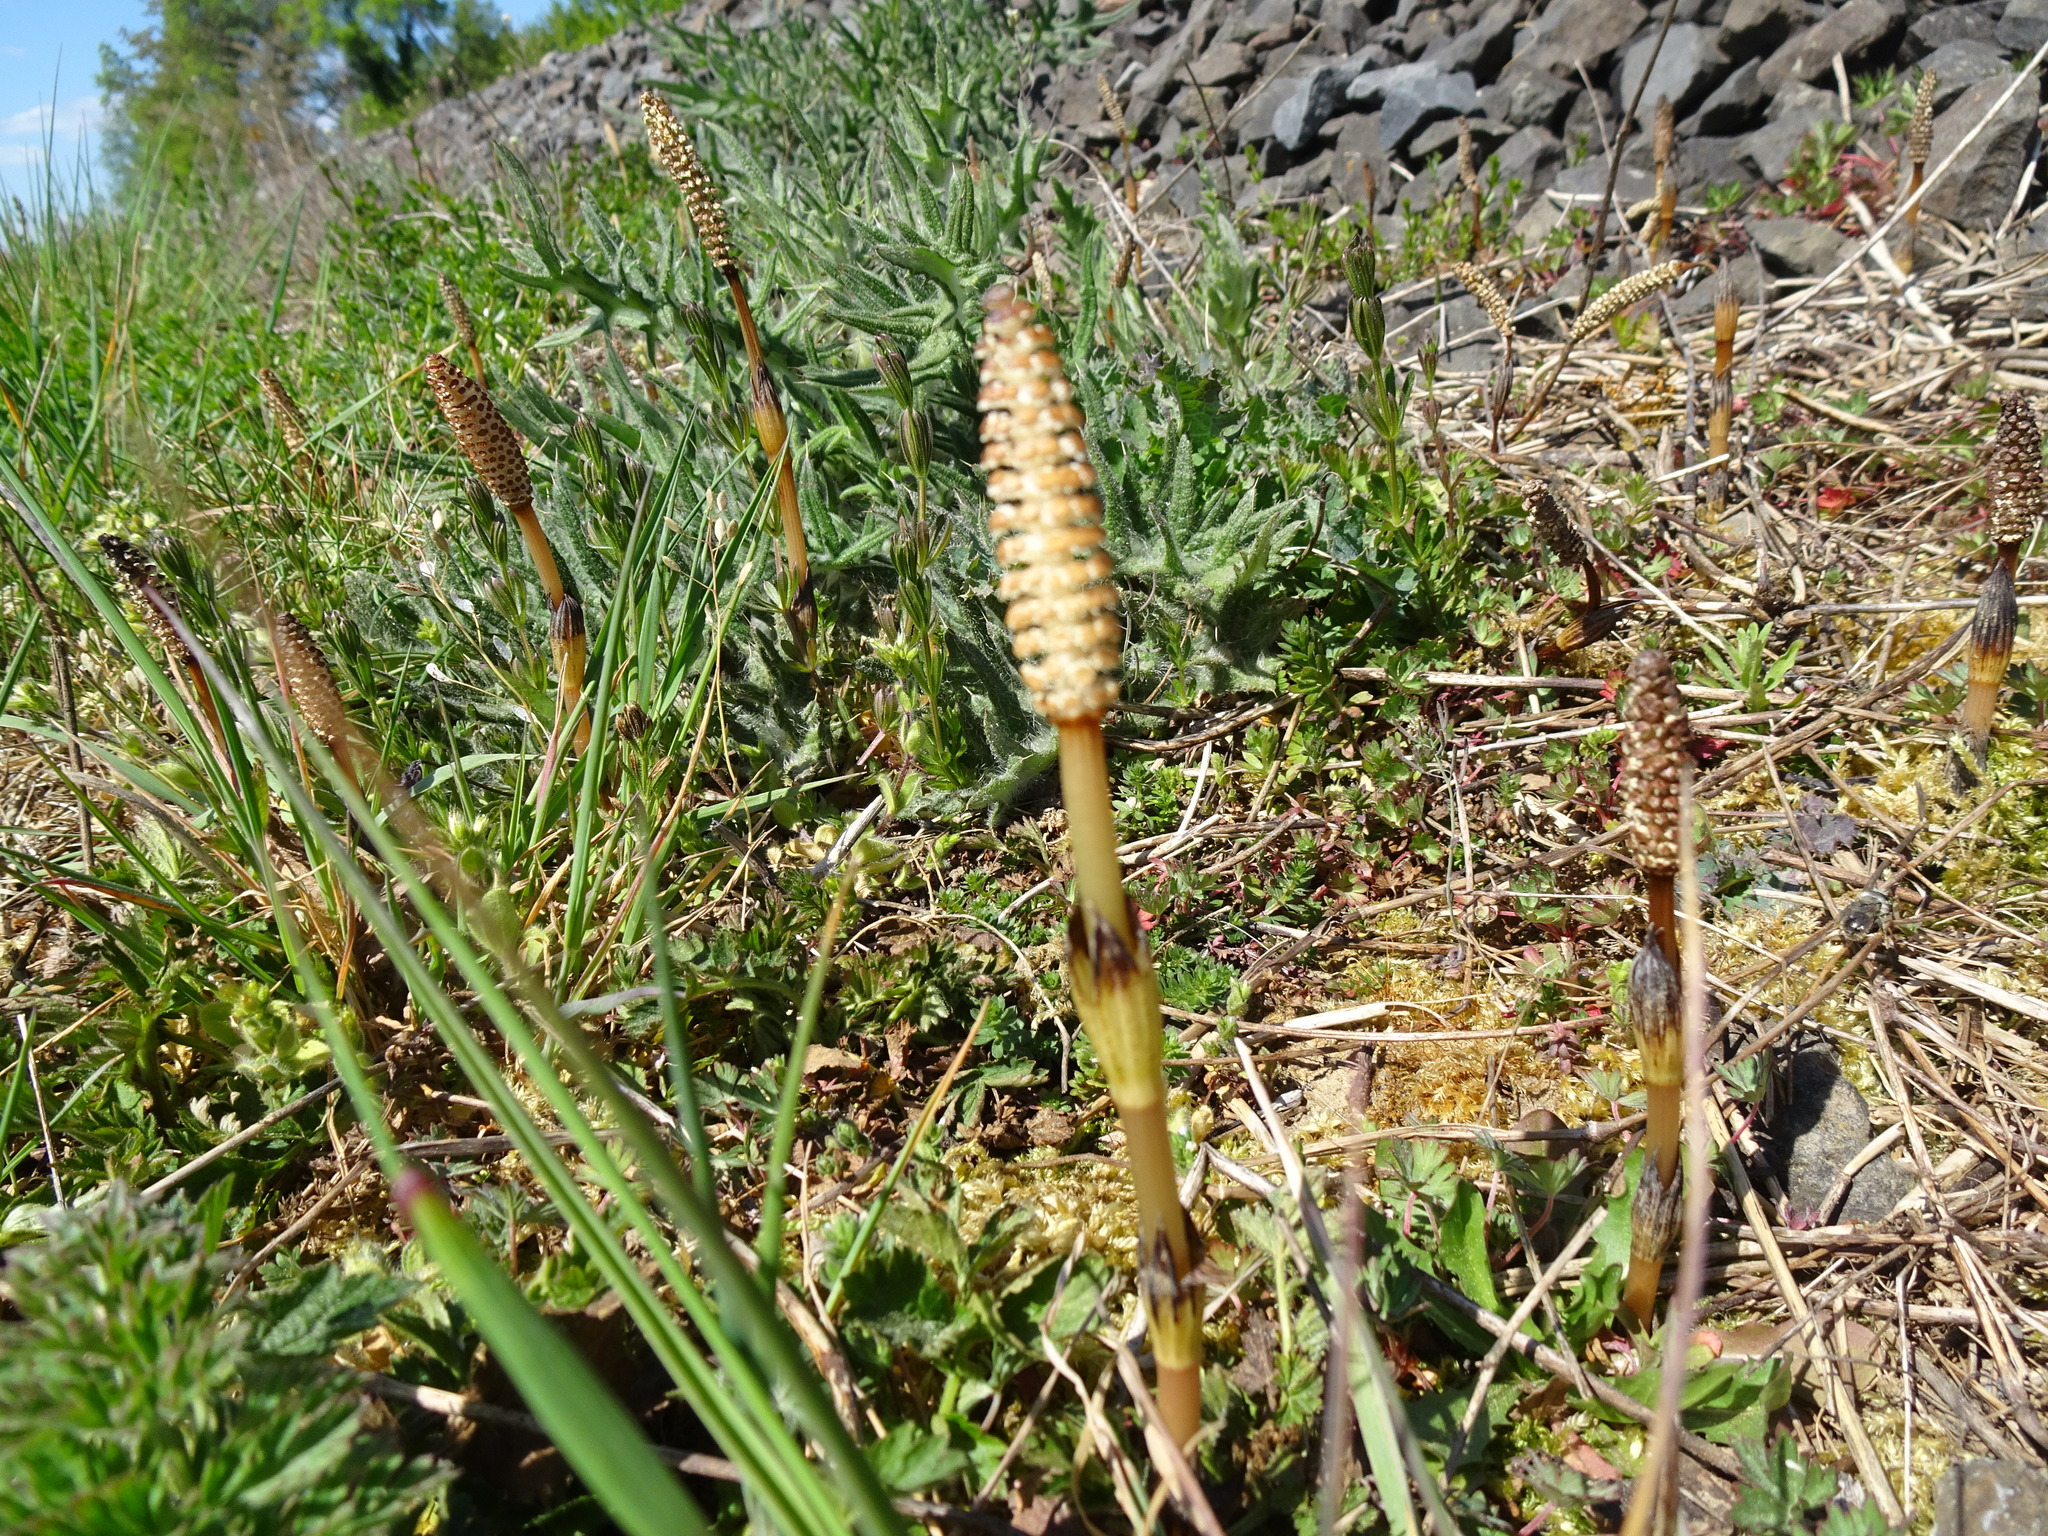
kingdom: Plantae
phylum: Tracheophyta
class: Polypodiopsida
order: Equisetales
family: Equisetaceae
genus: Equisetum
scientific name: Equisetum arvense
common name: Field horsetail
